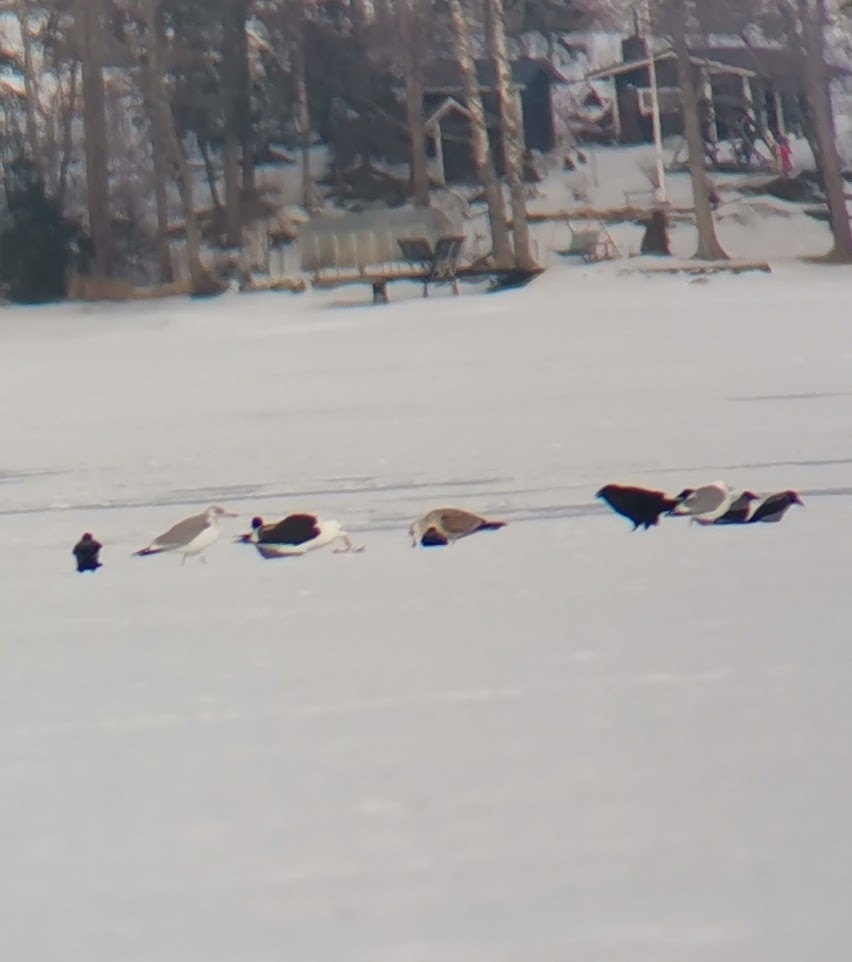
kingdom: Animalia
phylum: Chordata
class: Aves
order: Charadriiformes
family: Laridae
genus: Larus
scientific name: Larus marinus
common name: Great black-backed gull
